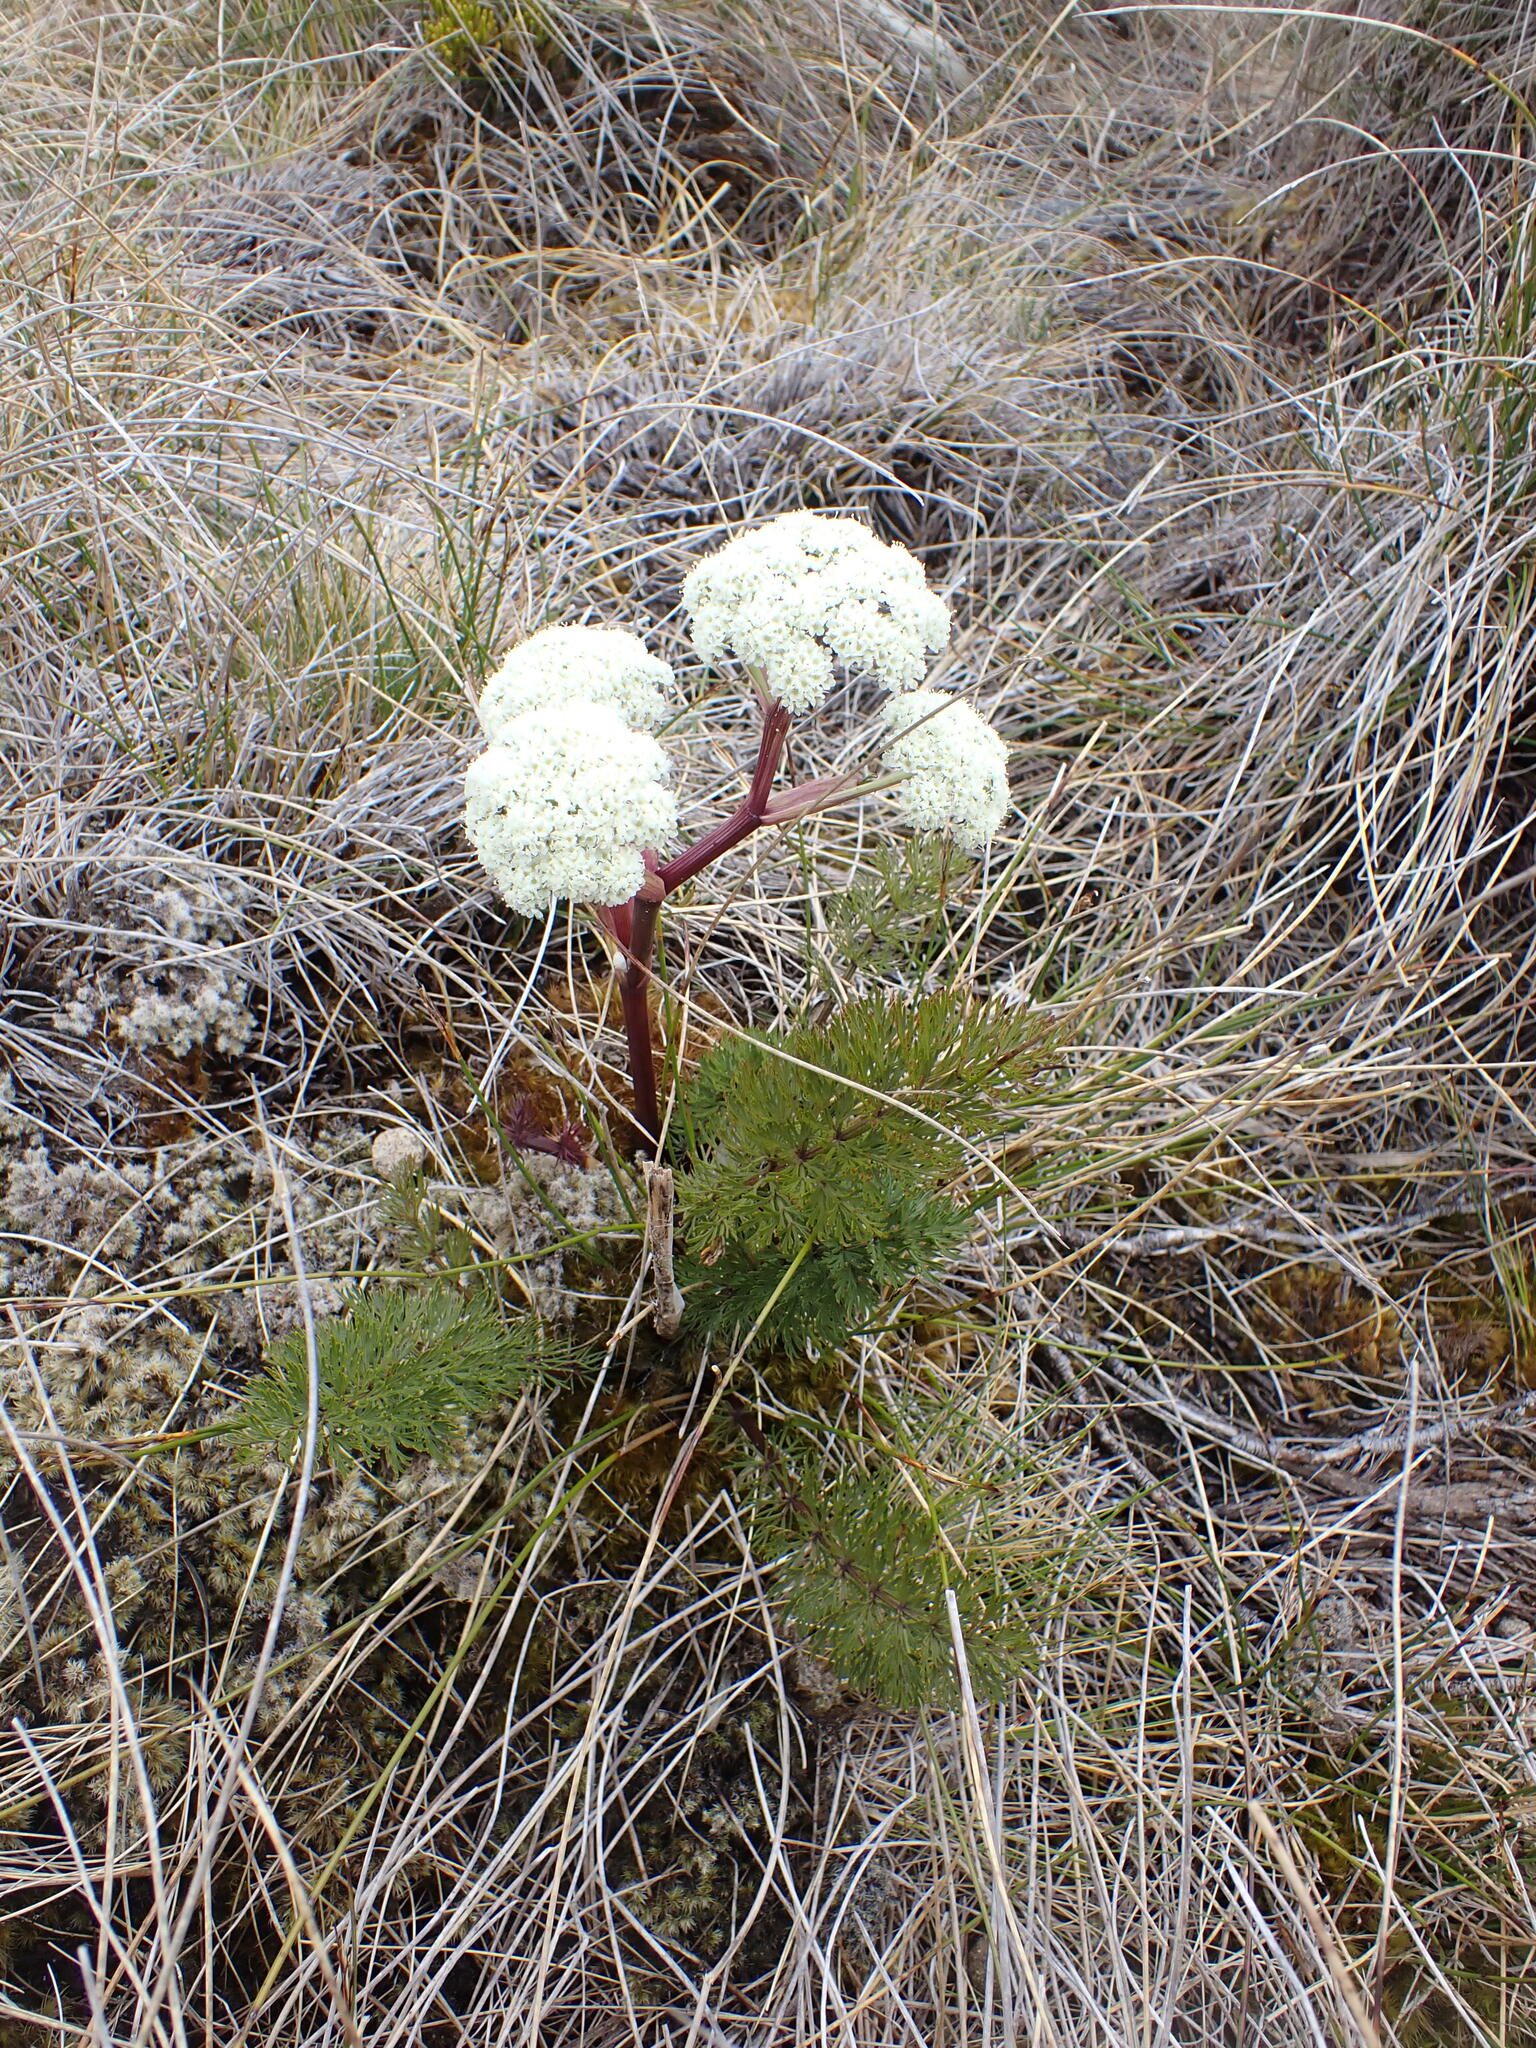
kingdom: Plantae
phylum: Tracheophyta
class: Magnoliopsida
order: Apiales
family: Apiaceae
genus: Anisotome
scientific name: Anisotome haastii
